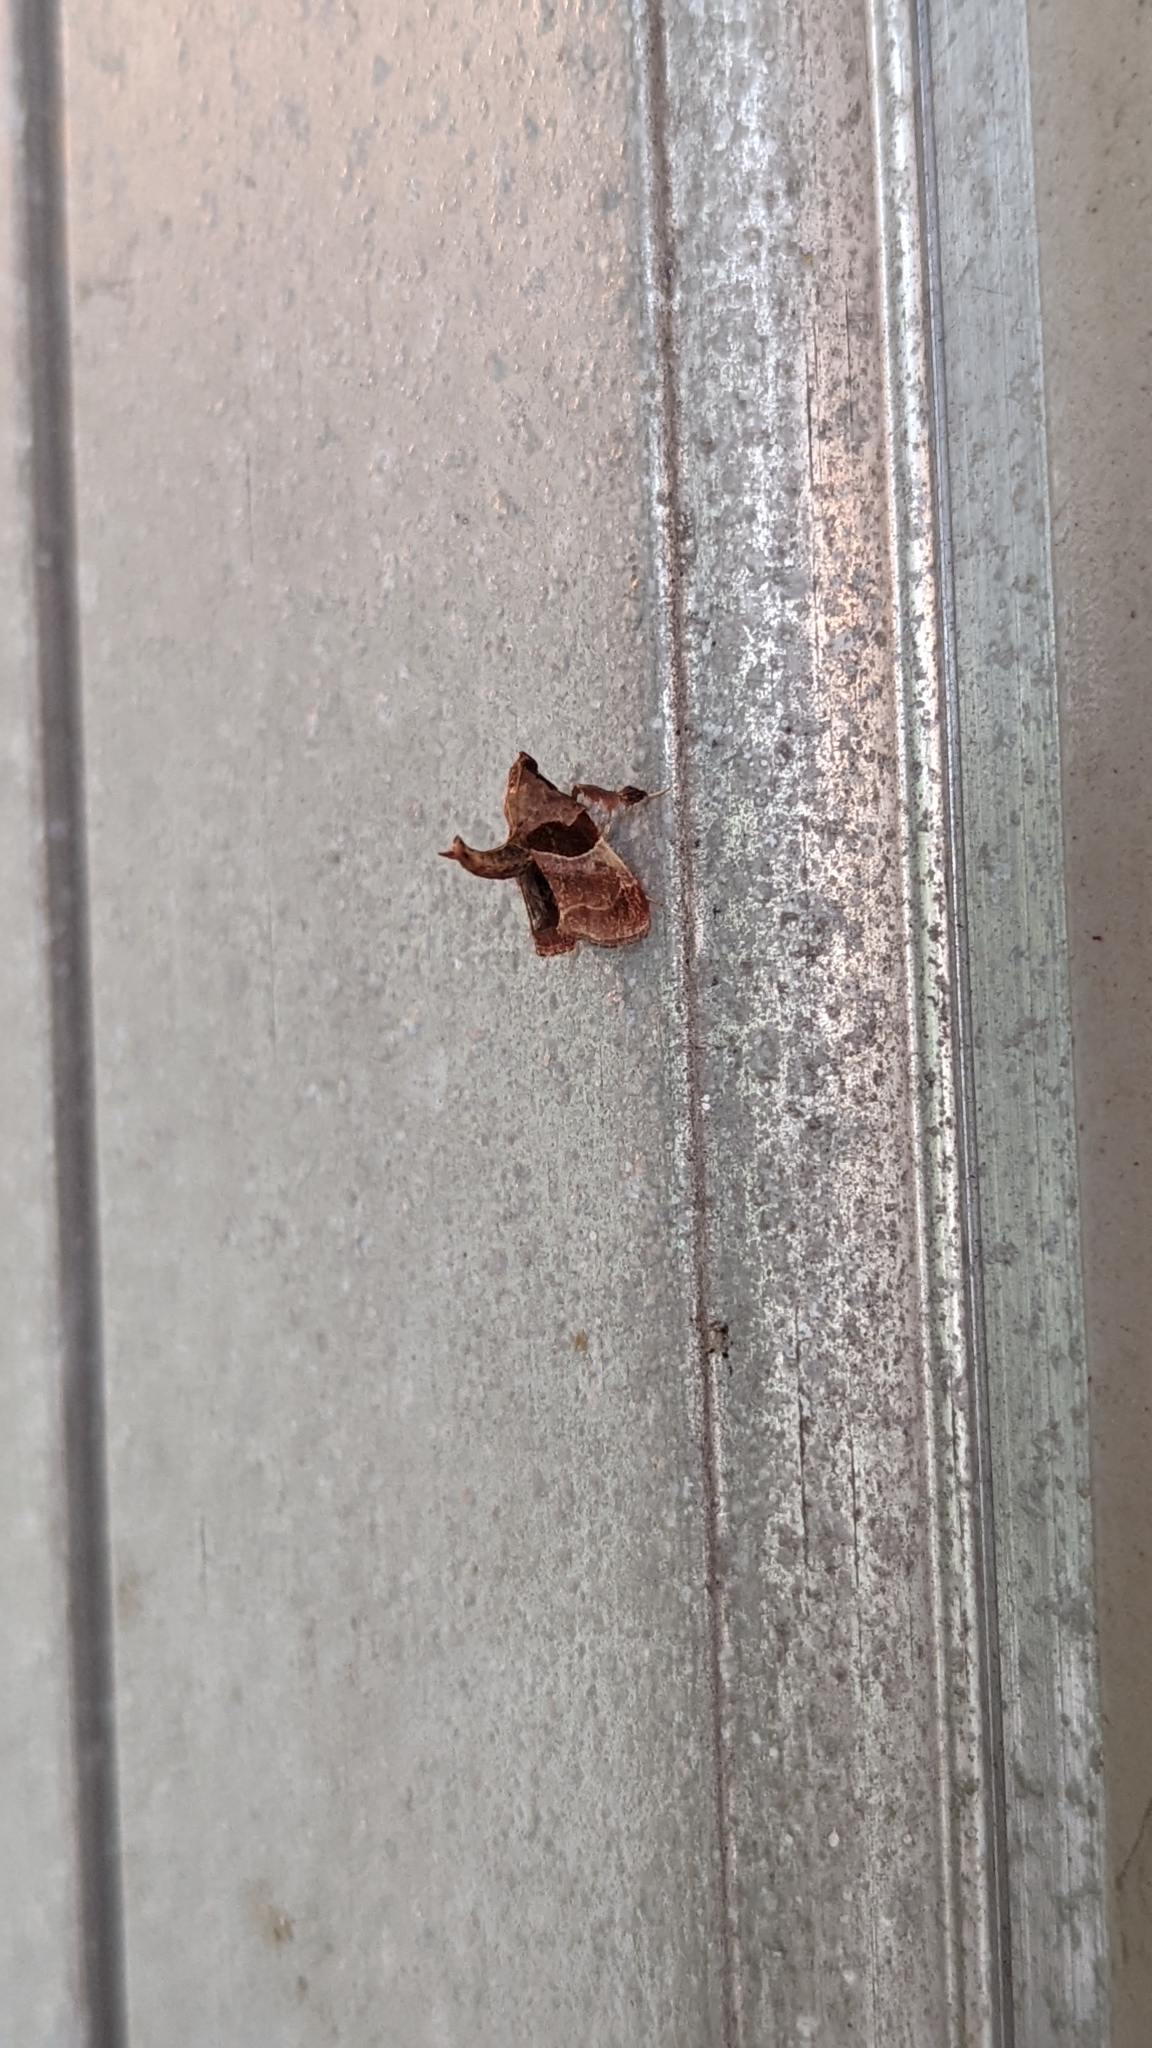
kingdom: Animalia
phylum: Arthropoda
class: Insecta
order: Lepidoptera
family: Pyralidae
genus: Tosale
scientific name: Tosale oviplagalis
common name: Dimorphic tosale moth
